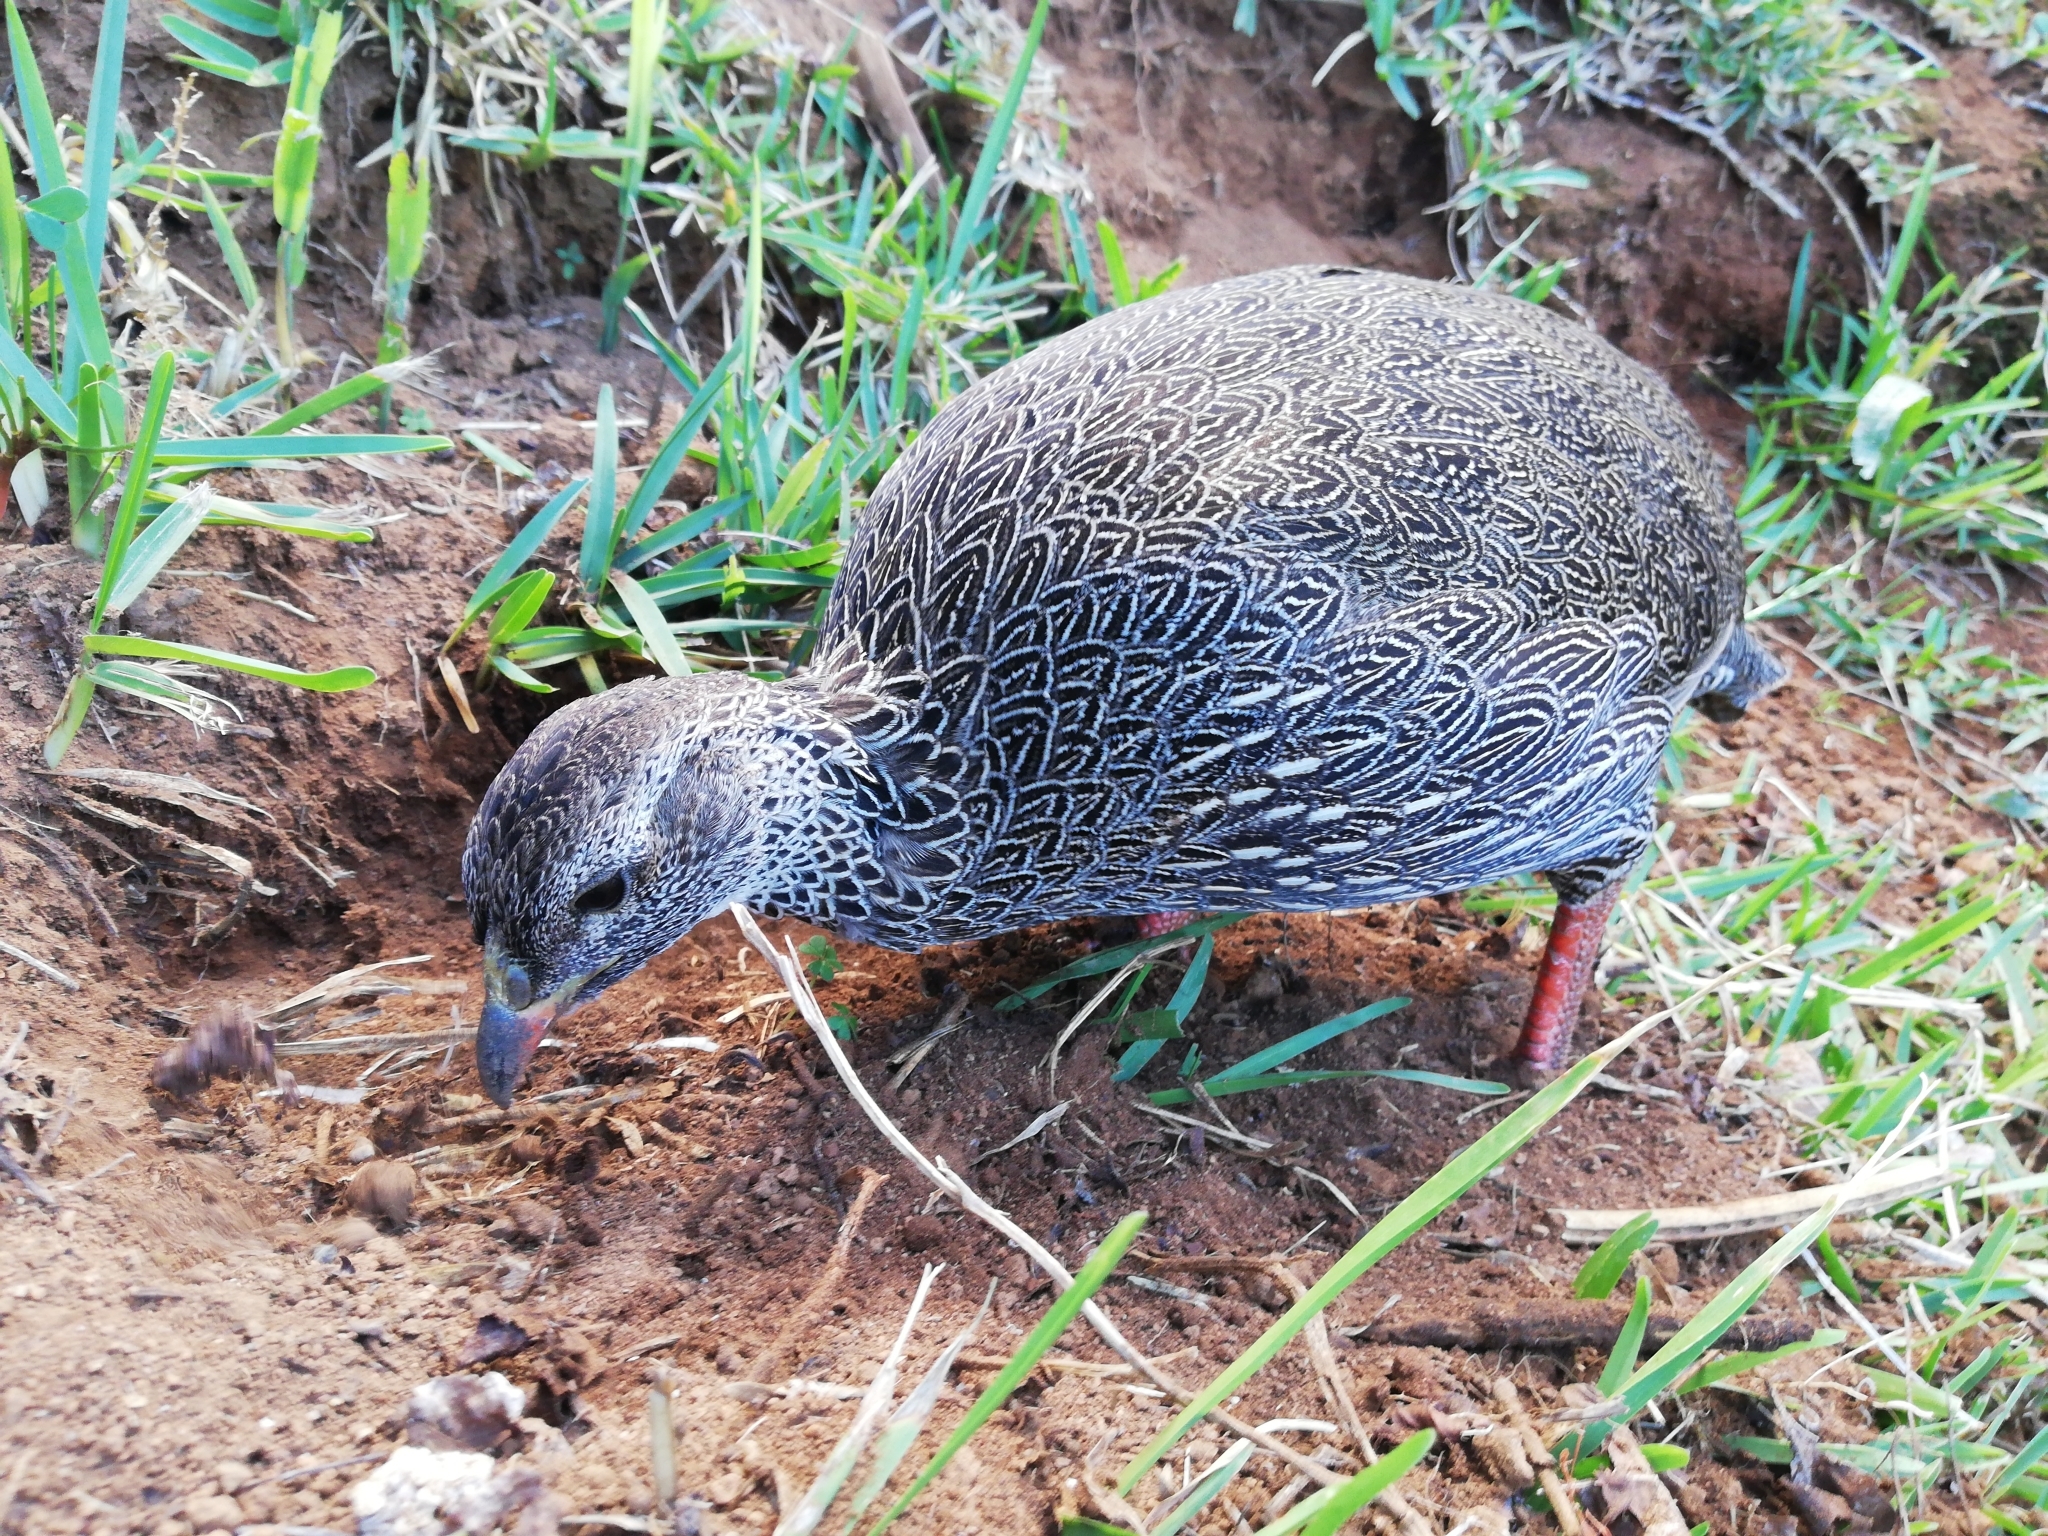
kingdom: Animalia
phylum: Chordata
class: Aves
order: Galliformes
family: Phasianidae
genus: Pternistis
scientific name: Pternistis capensis
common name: Cape spurfowl
